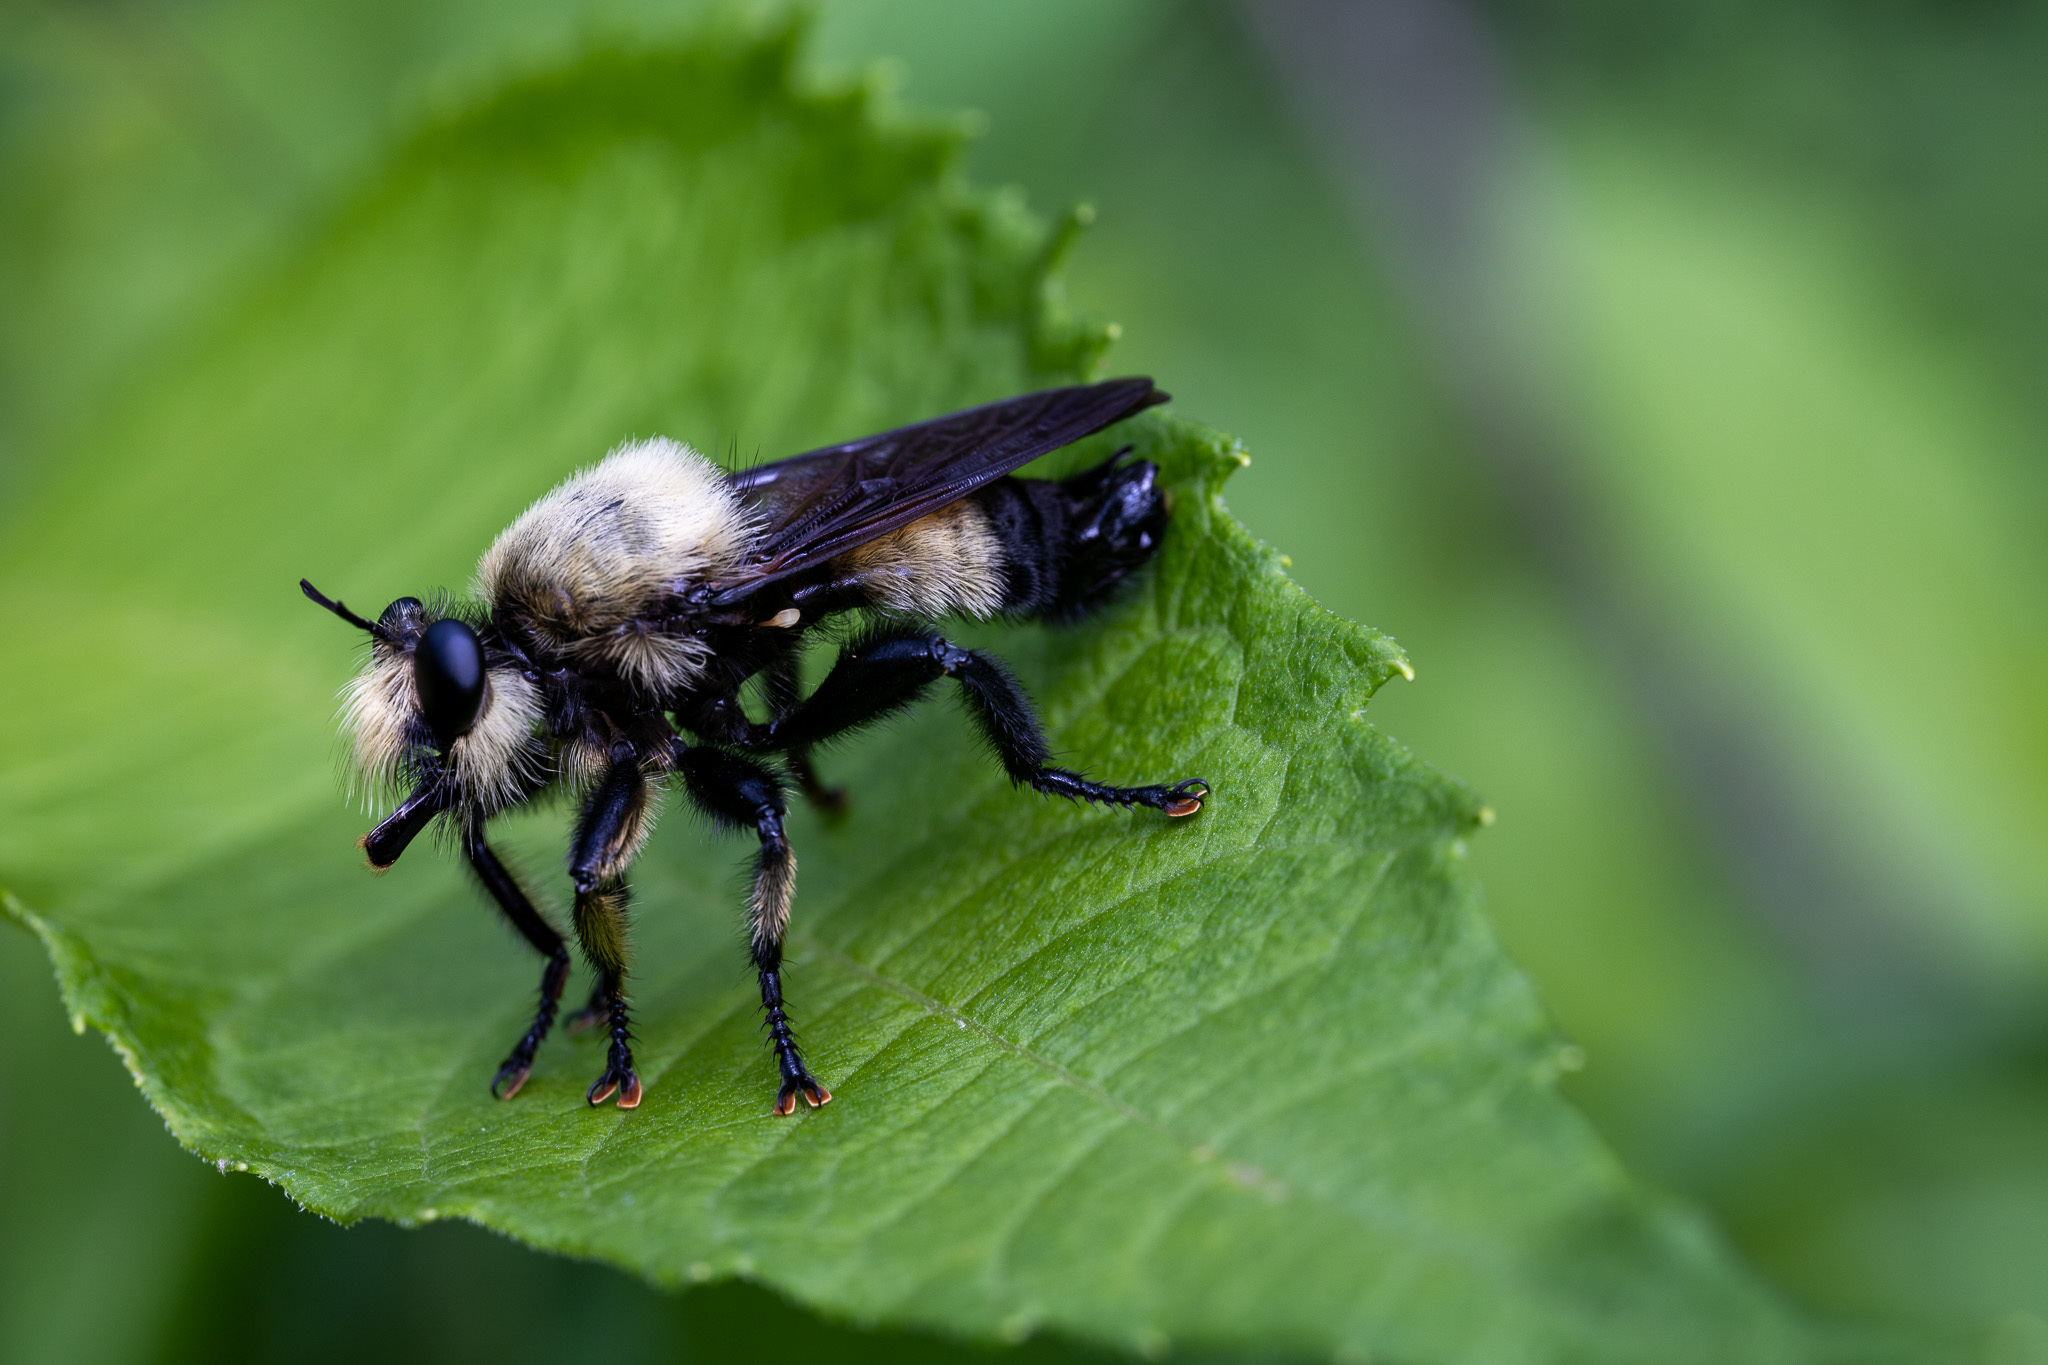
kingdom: Animalia
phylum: Arthropoda
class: Insecta
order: Diptera
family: Asilidae
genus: Laphria
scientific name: Laphria grossa
